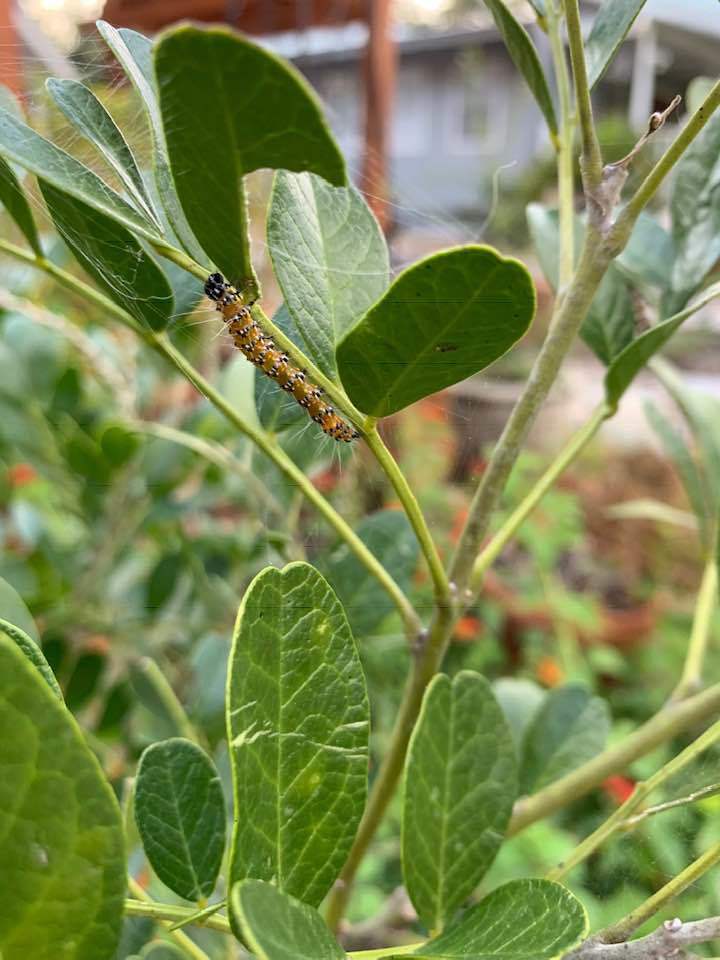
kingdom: Animalia
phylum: Arthropoda
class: Insecta
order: Lepidoptera
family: Crambidae
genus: Uresiphita
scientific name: Uresiphita reversalis
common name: Genista broom moth
